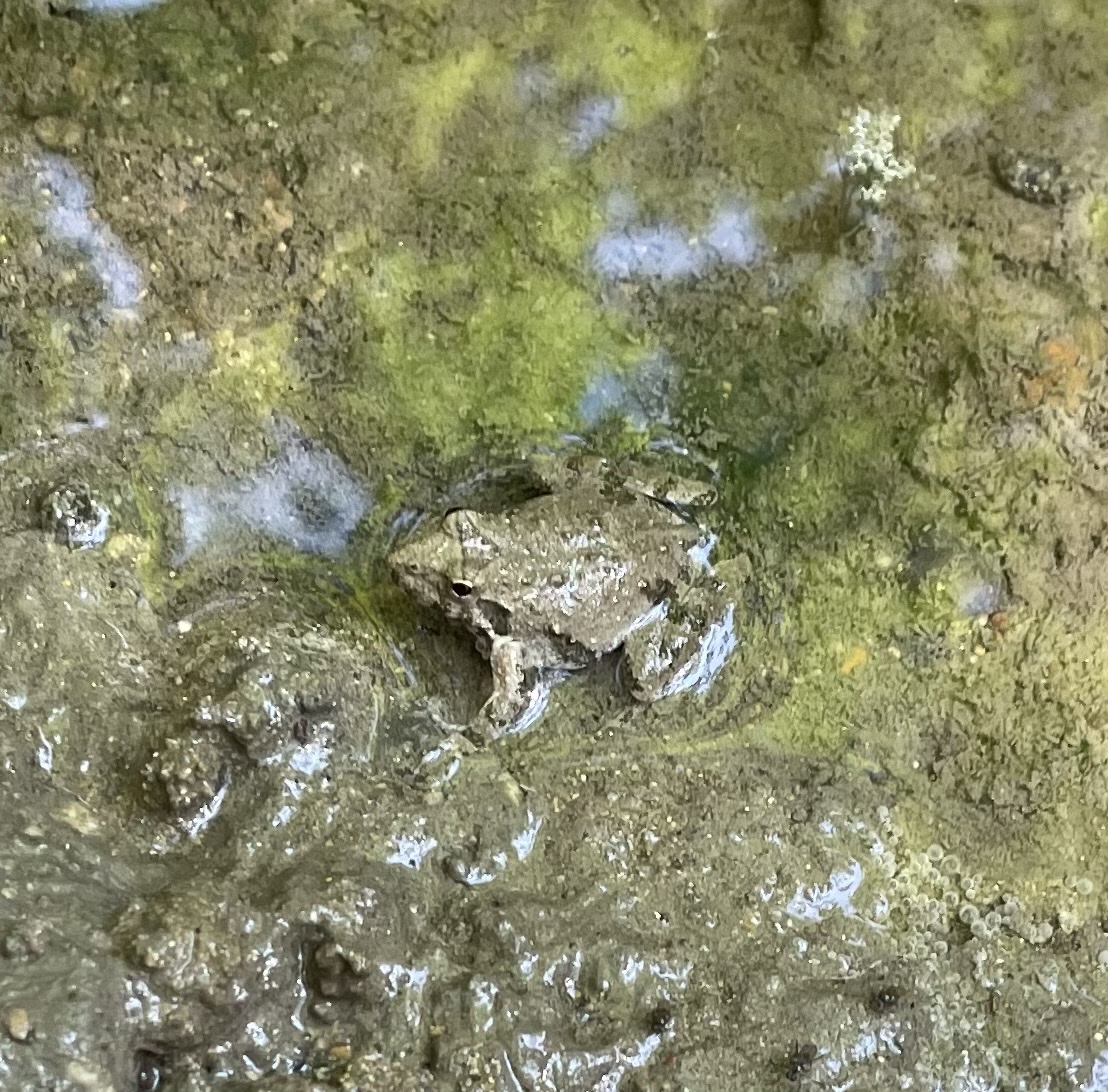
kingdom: Animalia
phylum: Chordata
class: Amphibia
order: Anura
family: Hylidae
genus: Acris
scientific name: Acris blanchardi
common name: Blanchard's cricket frog
